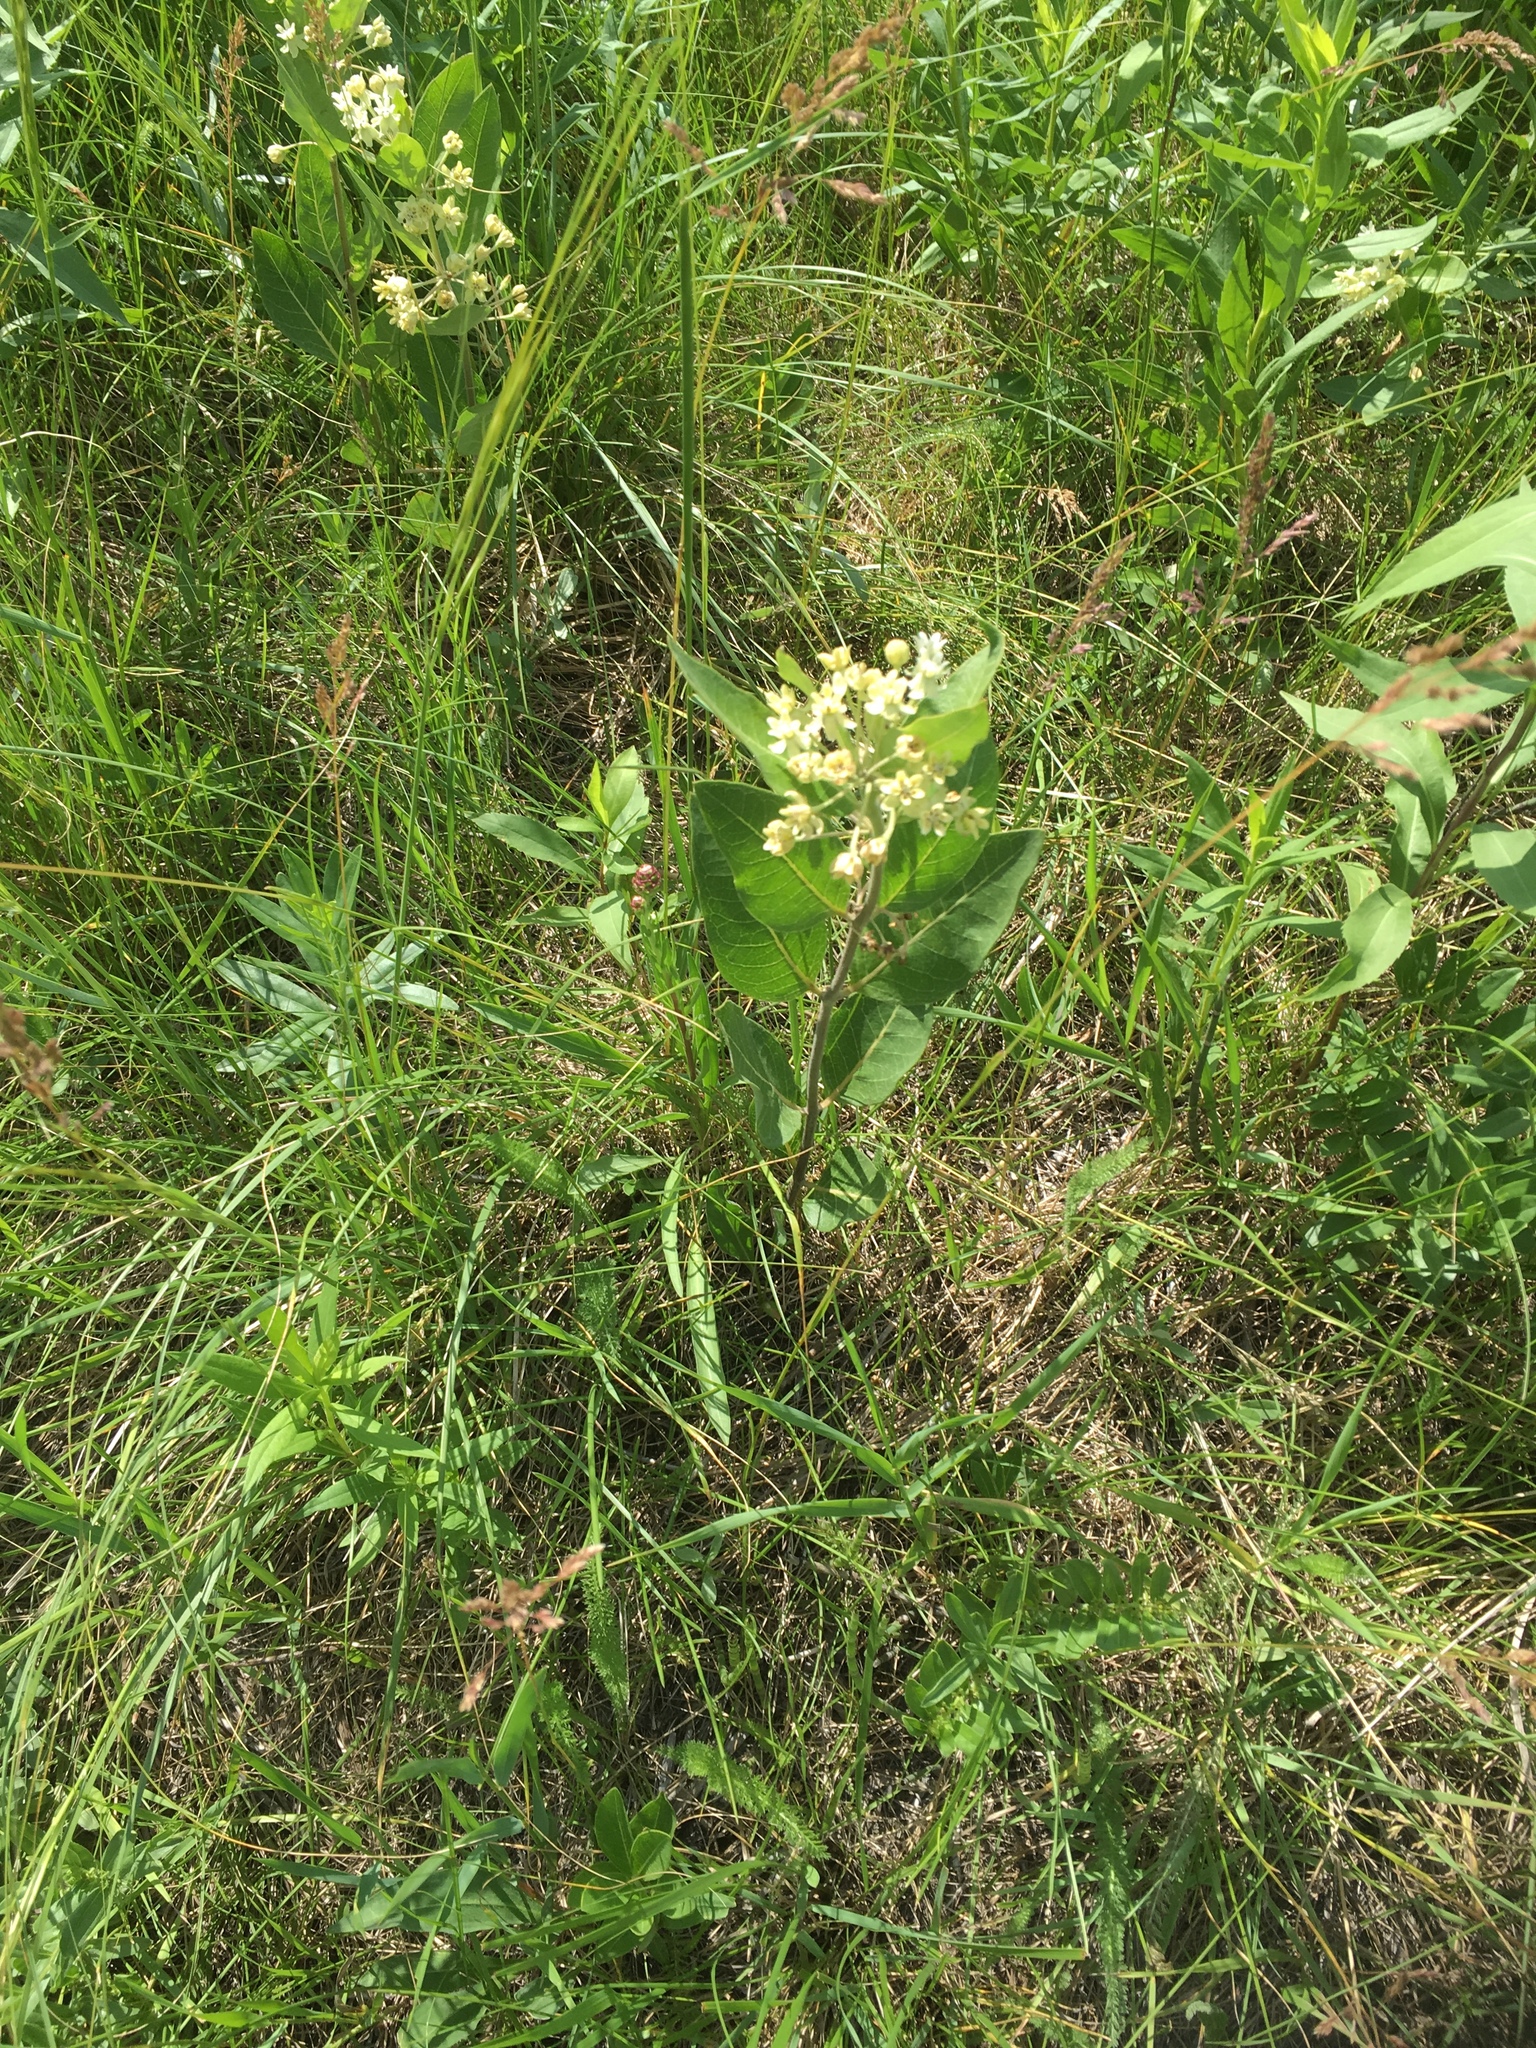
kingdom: Plantae
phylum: Tracheophyta
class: Magnoliopsida
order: Gentianales
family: Apocynaceae
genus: Asclepias
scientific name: Asclepias ovalifolia
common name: Dwarf milkweed
